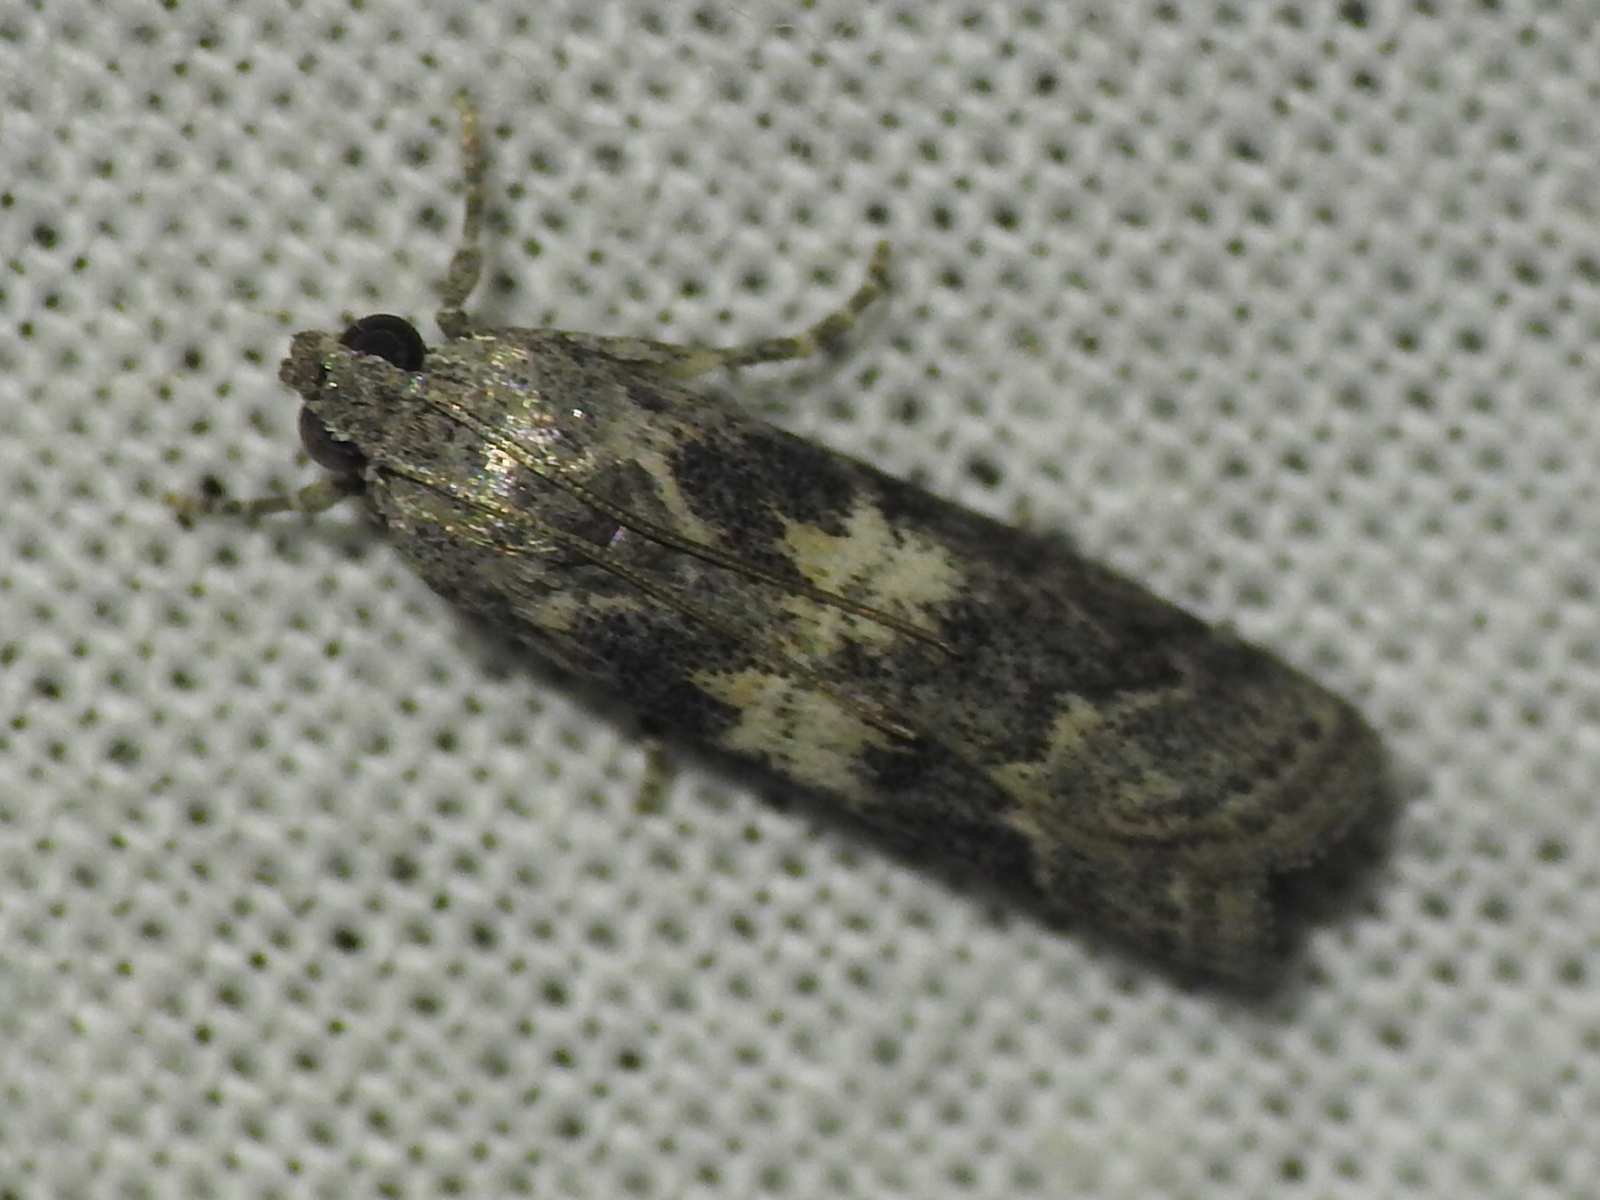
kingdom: Animalia
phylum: Arthropoda
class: Insecta
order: Lepidoptera
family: Pyralidae
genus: Tacoma
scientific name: Tacoma feriella
